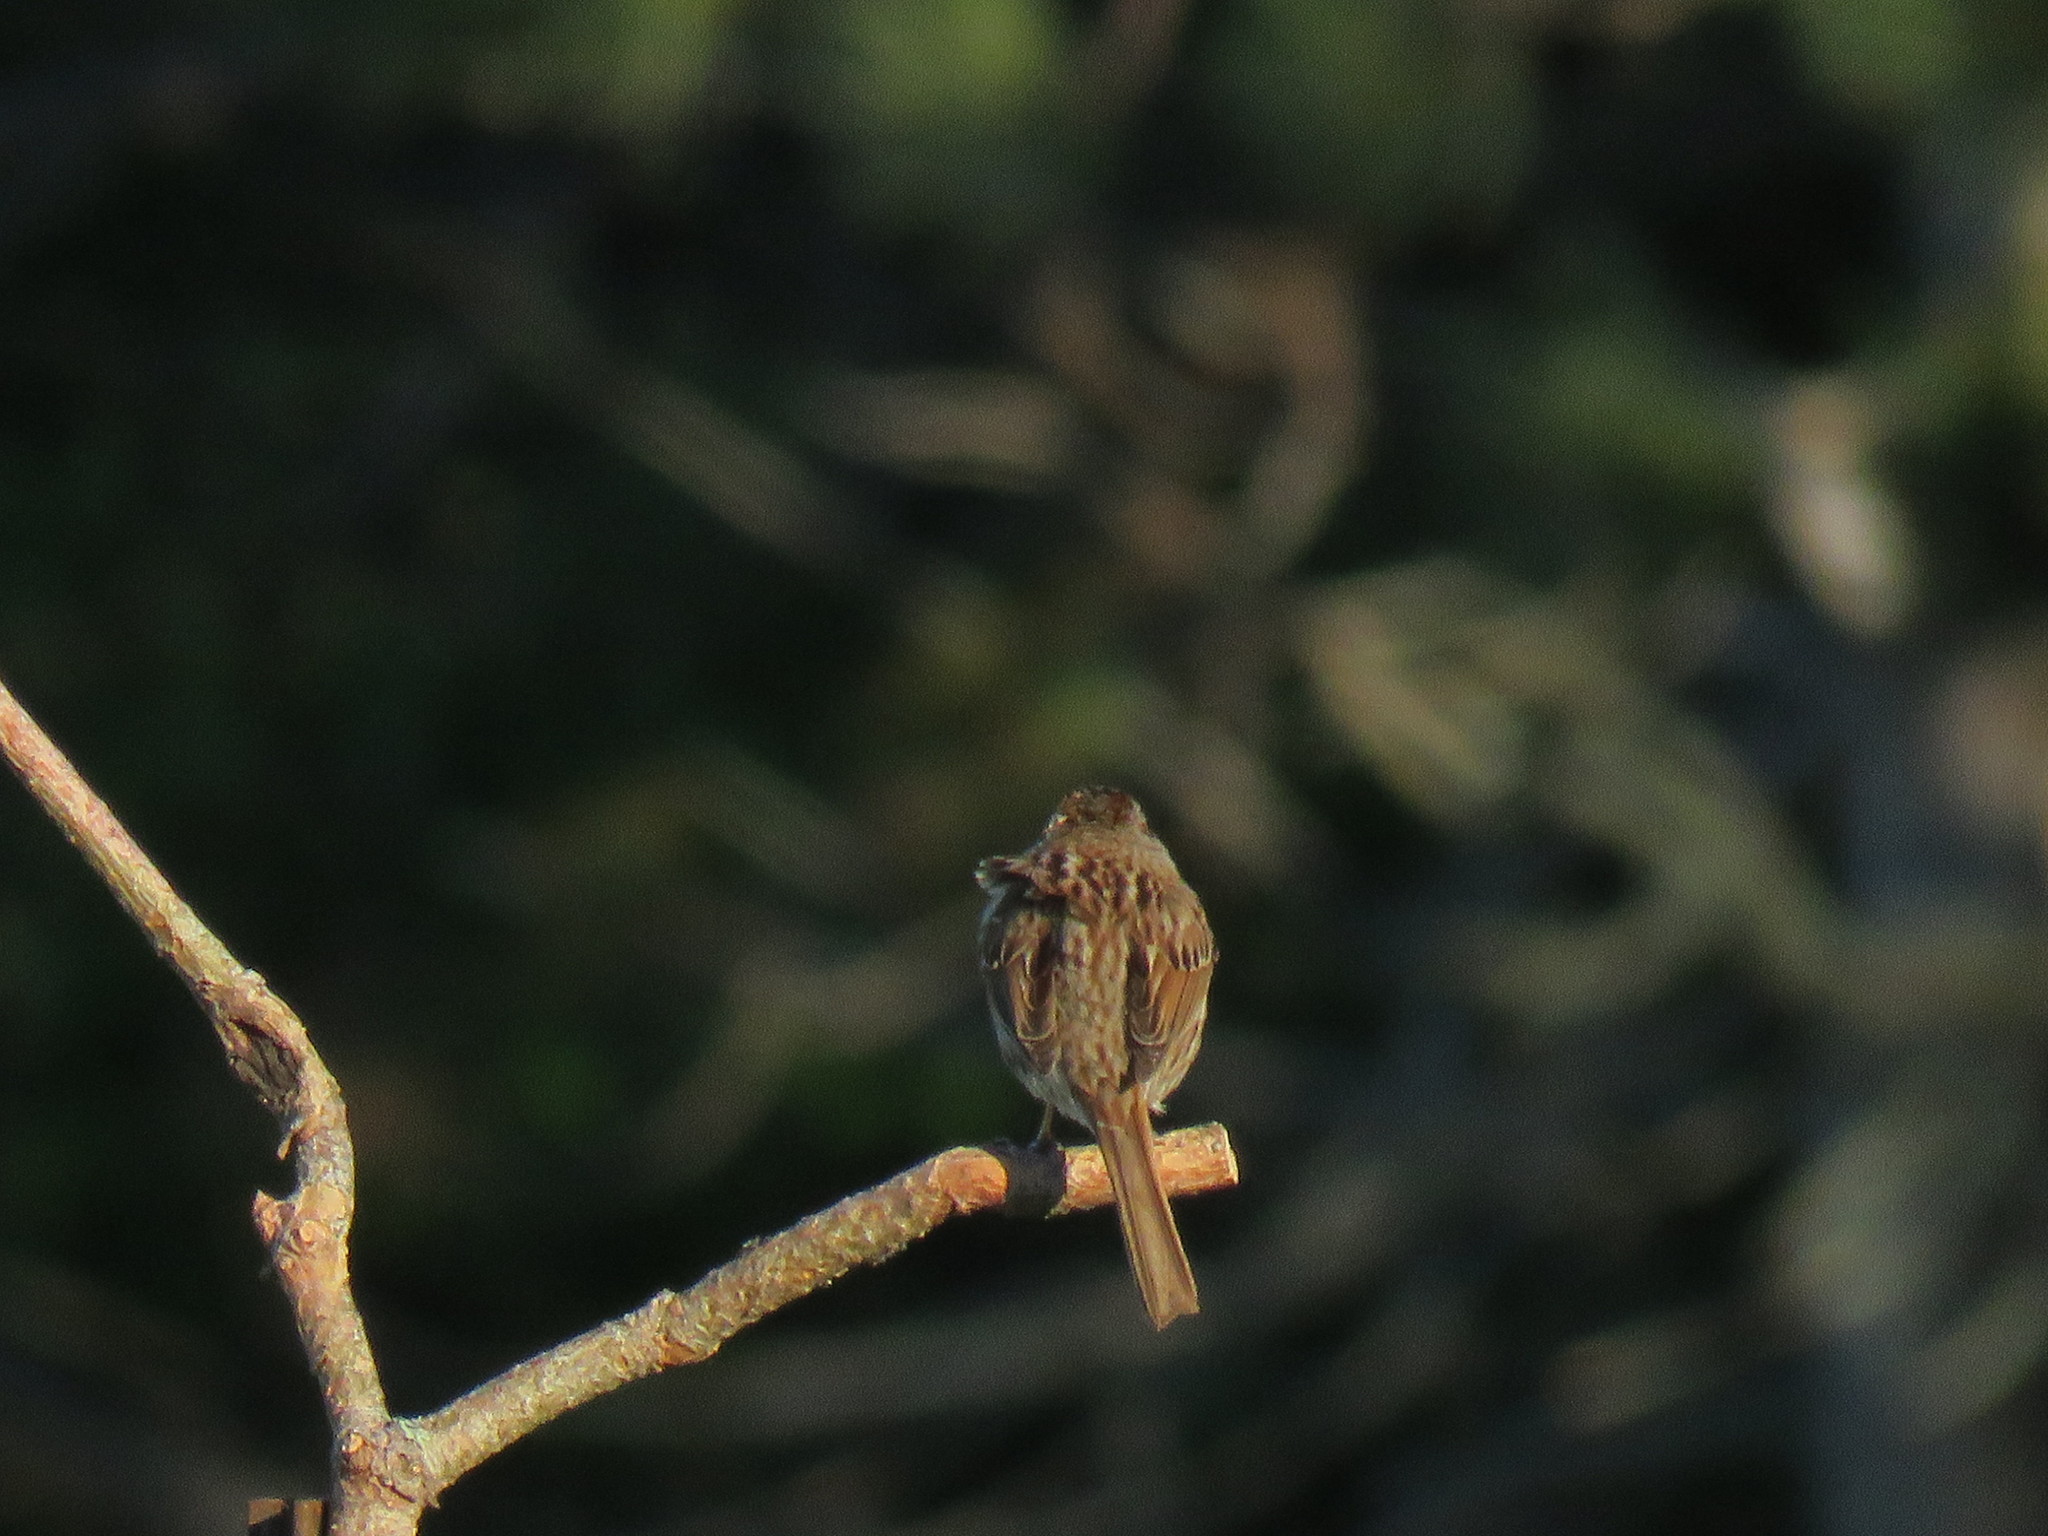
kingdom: Animalia
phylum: Chordata
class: Aves
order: Passeriformes
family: Passerellidae
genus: Melospiza
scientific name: Melospiza melodia
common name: Song sparrow
